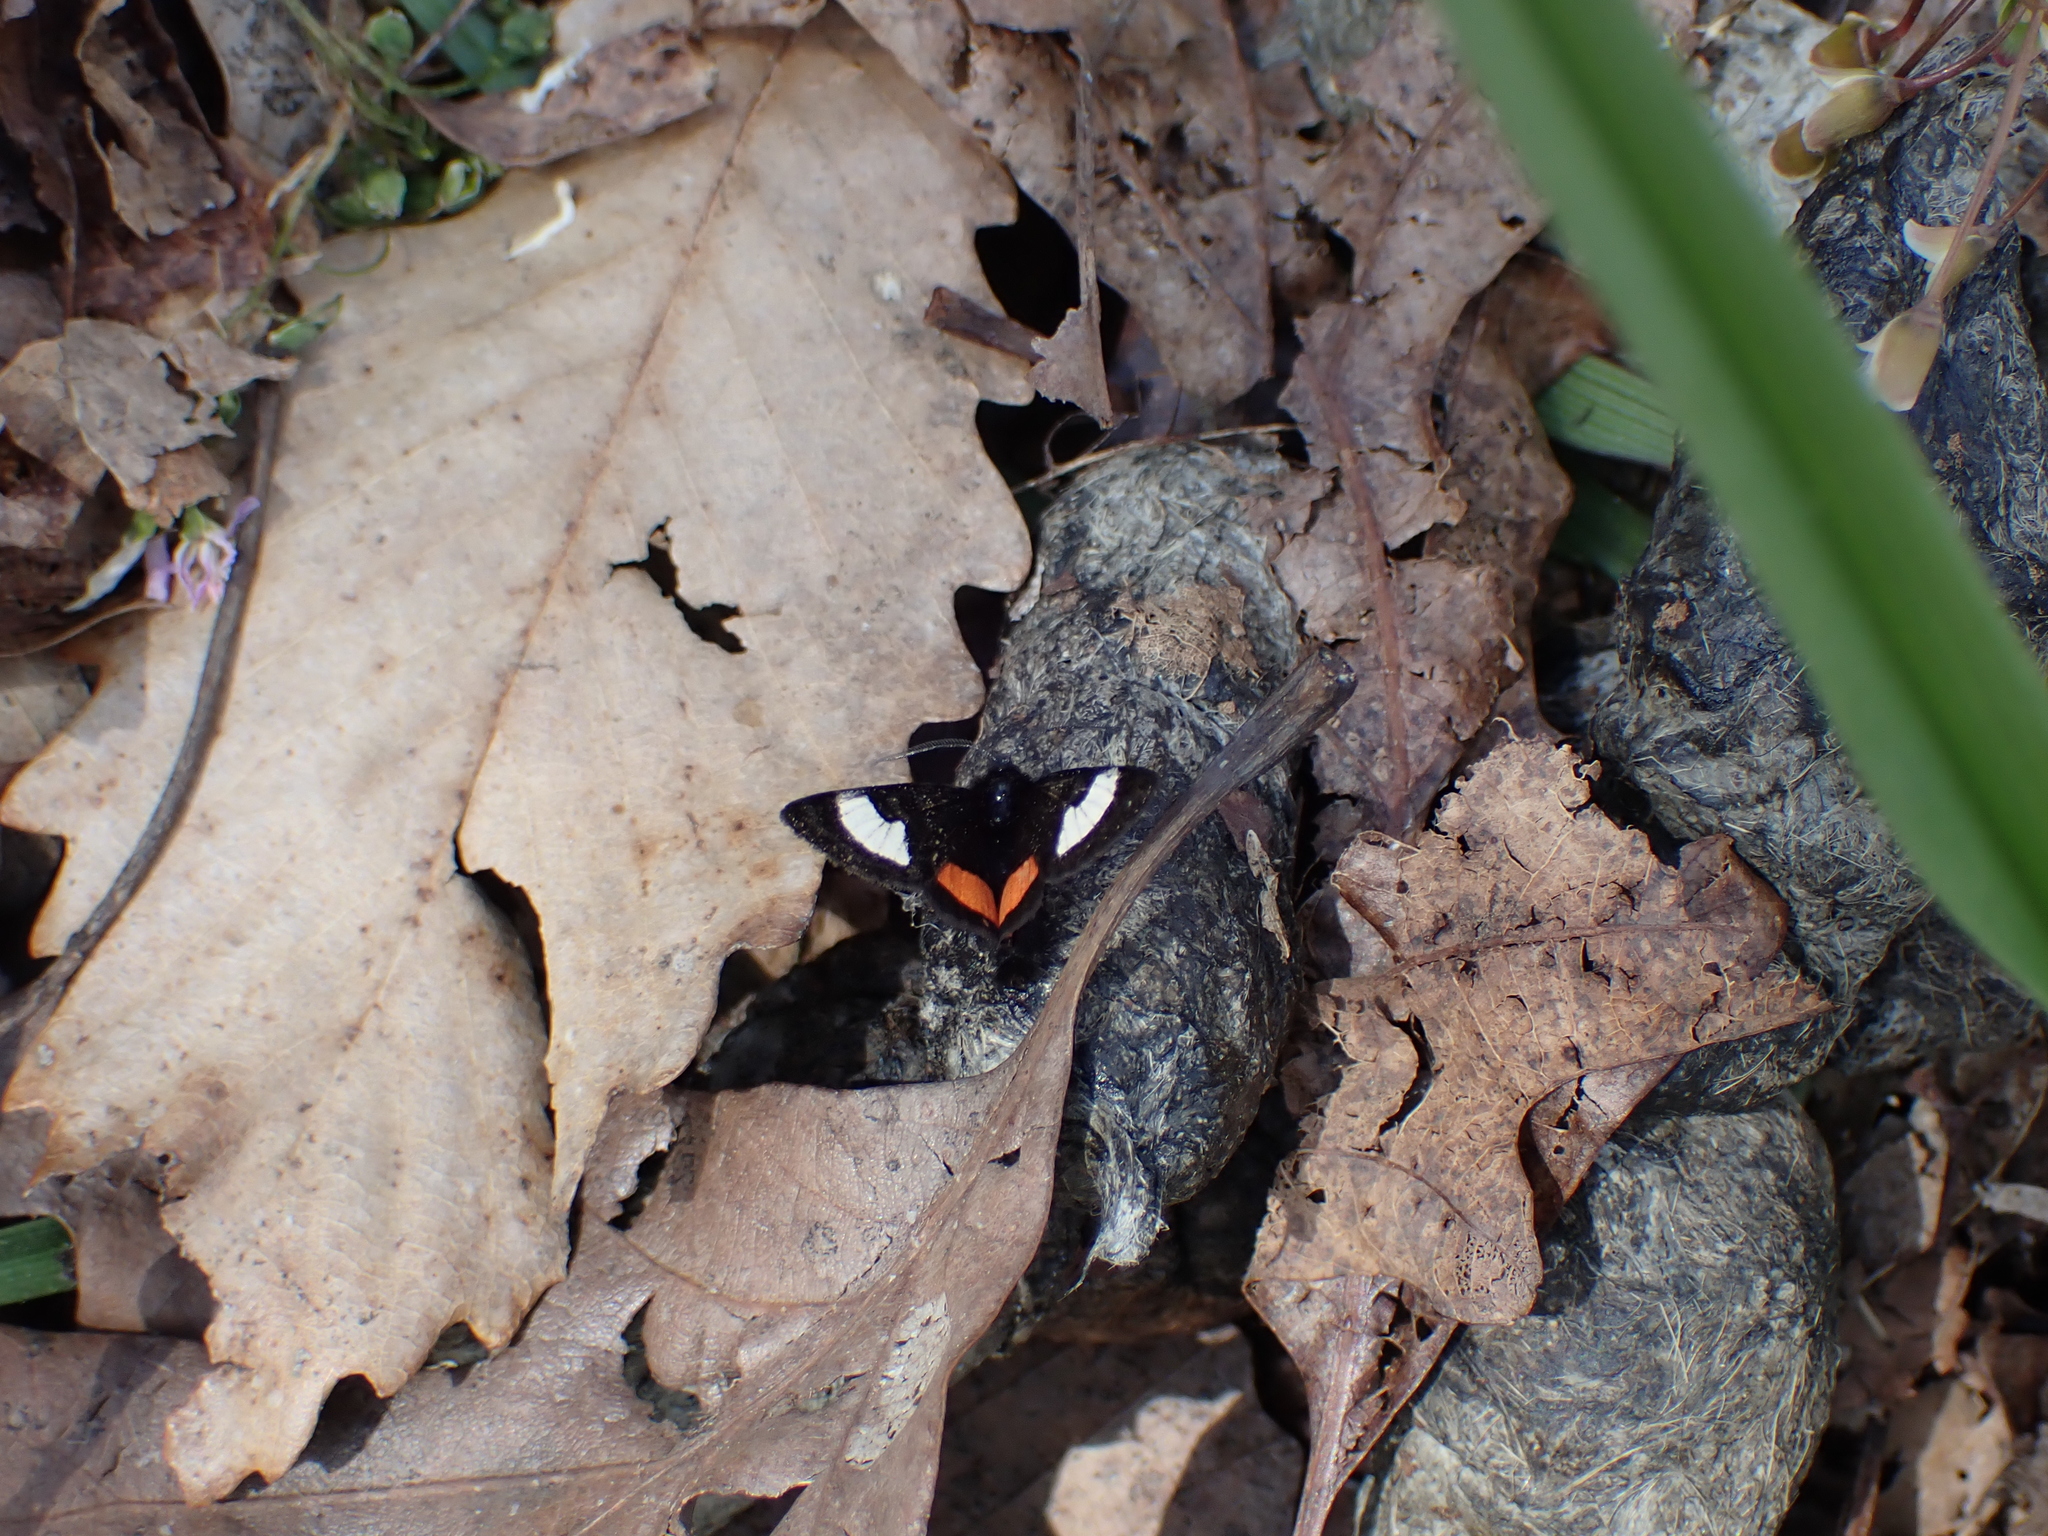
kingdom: Animalia
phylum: Arthropoda
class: Insecta
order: Lepidoptera
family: Noctuidae
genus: Psychomorpha
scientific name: Psychomorpha epimenis
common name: Grapevine epimenis moth
